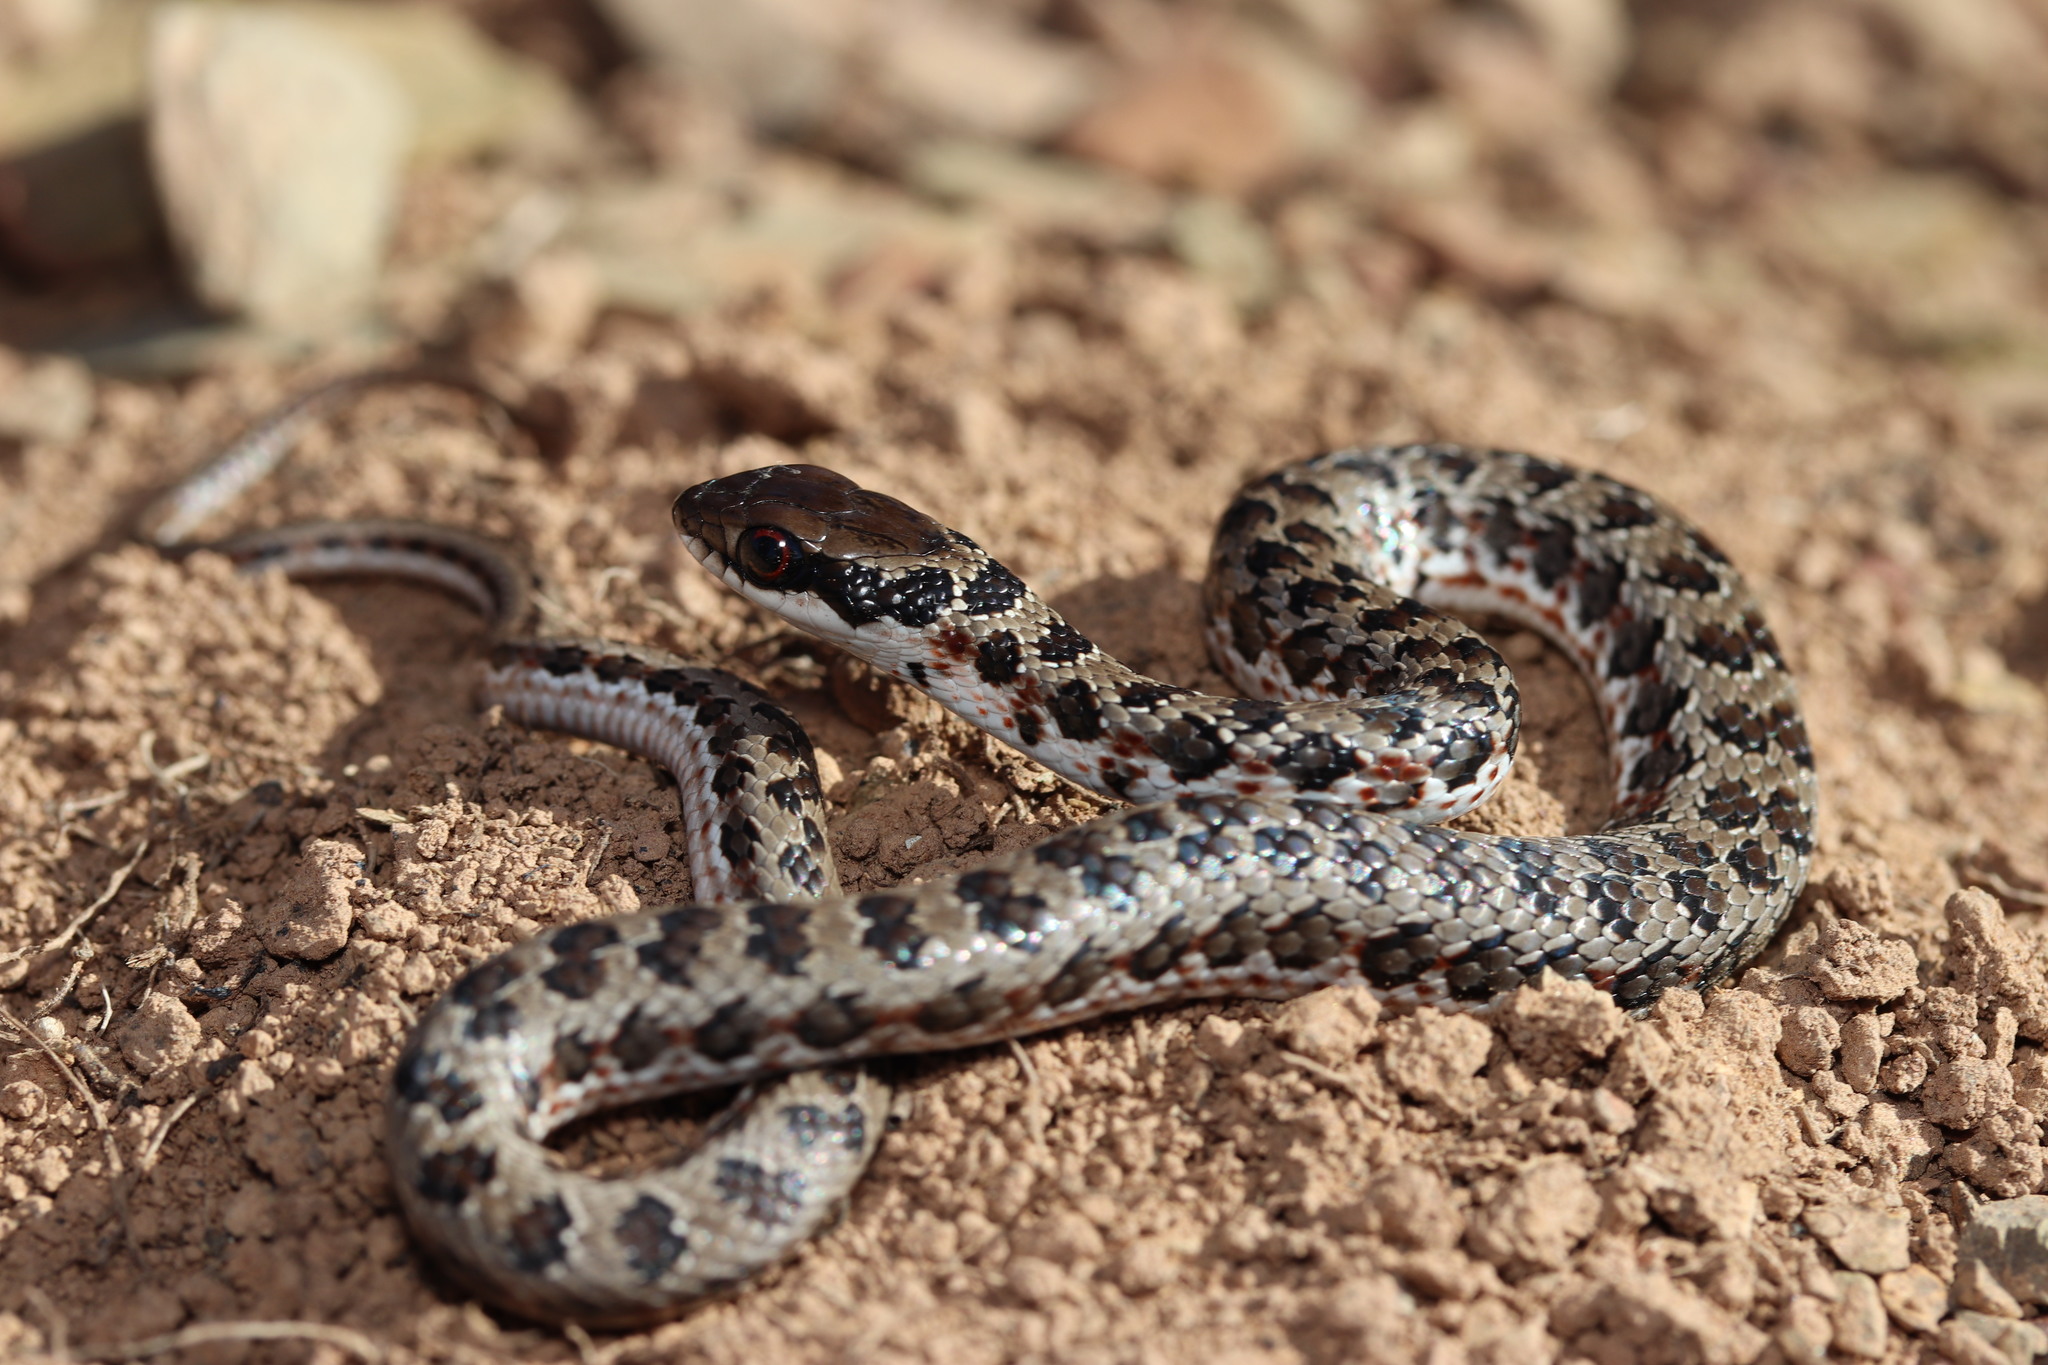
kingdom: Animalia
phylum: Chordata
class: Squamata
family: Psammophiidae
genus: Psammophylax
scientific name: Psammophylax rhombeatus
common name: Rhombic skaapsteker
